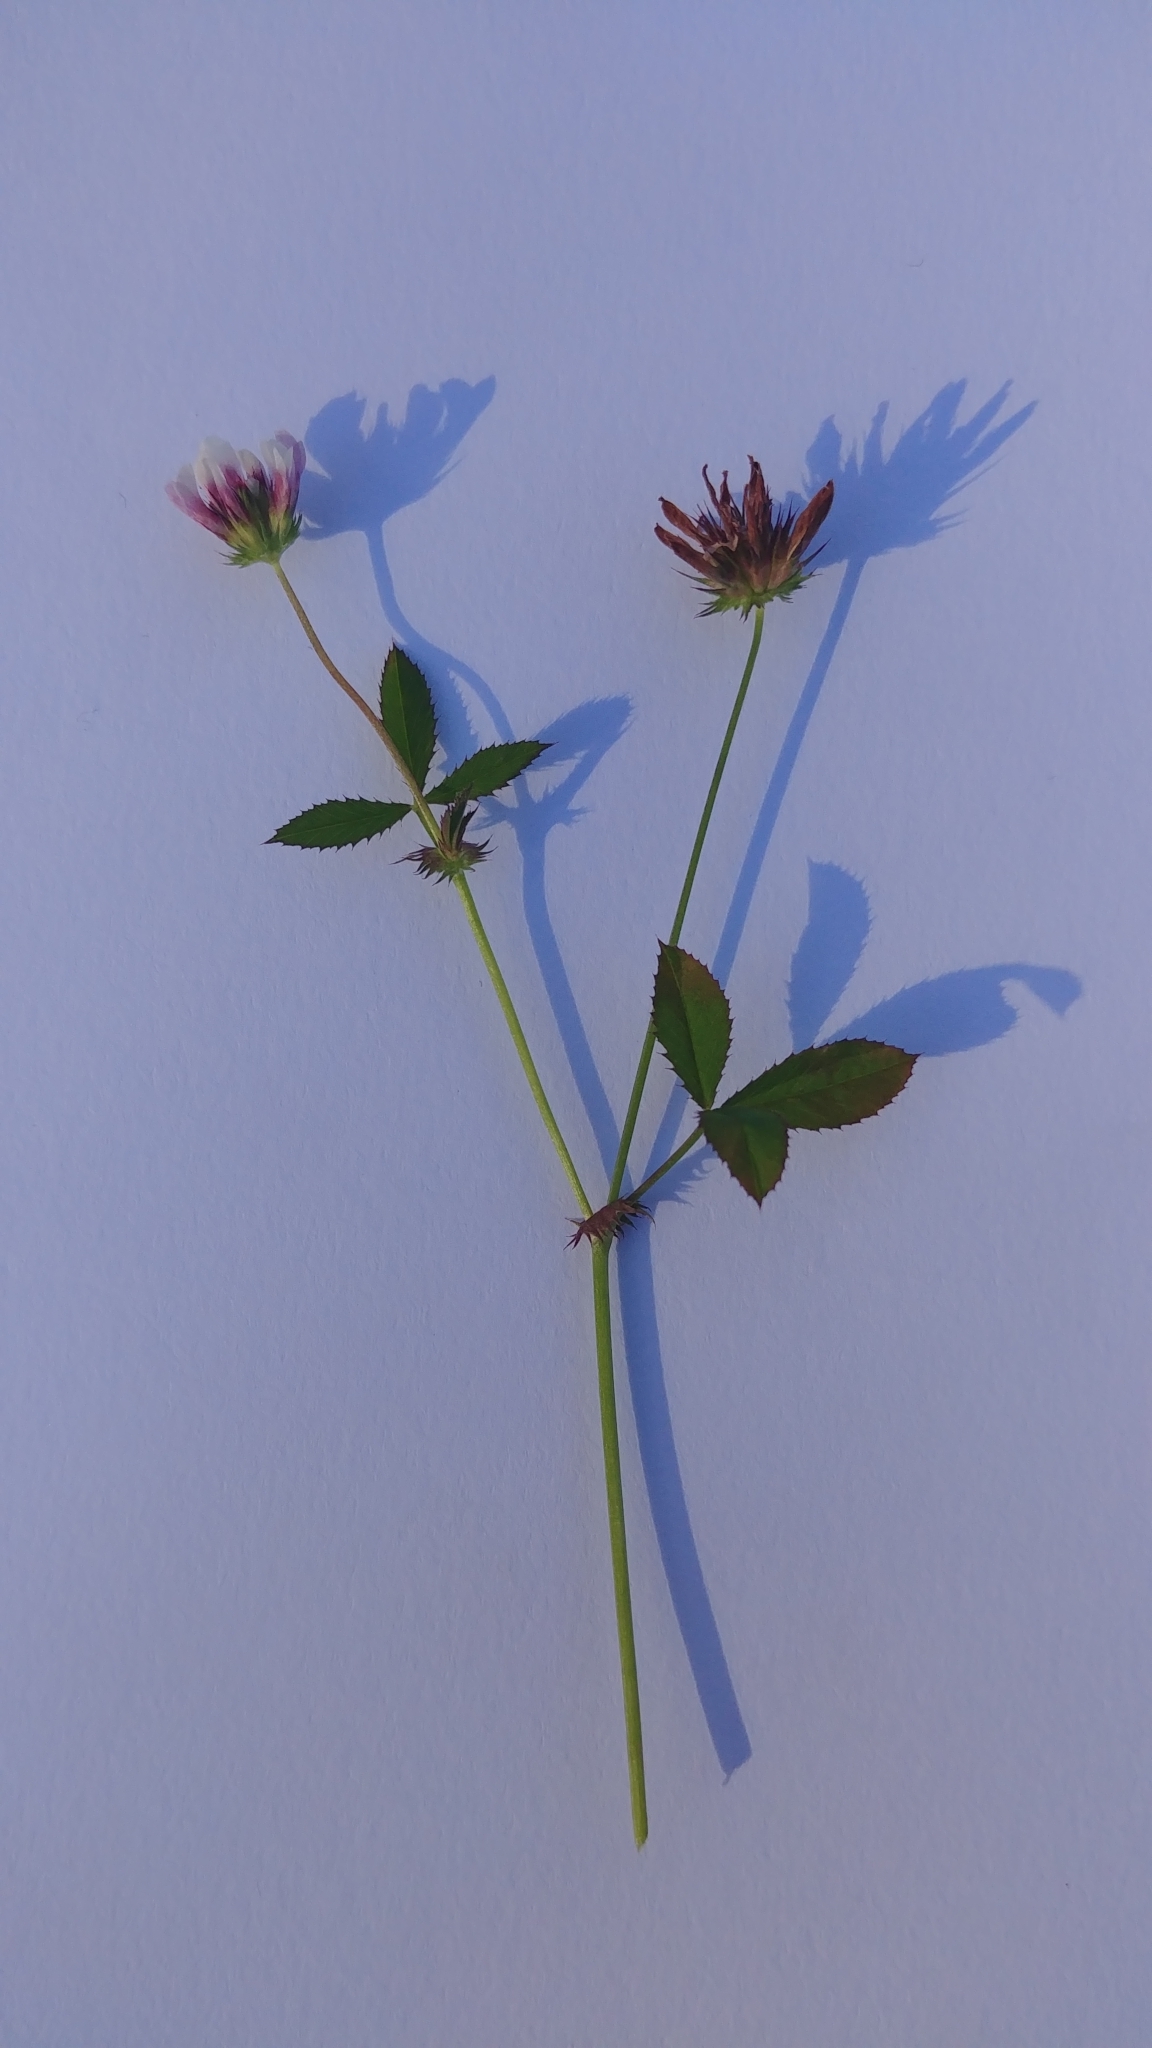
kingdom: Plantae
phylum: Tracheophyta
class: Magnoliopsida
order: Fabales
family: Fabaceae
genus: Trifolium
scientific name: Trifolium variegatum
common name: Whitetip clover
